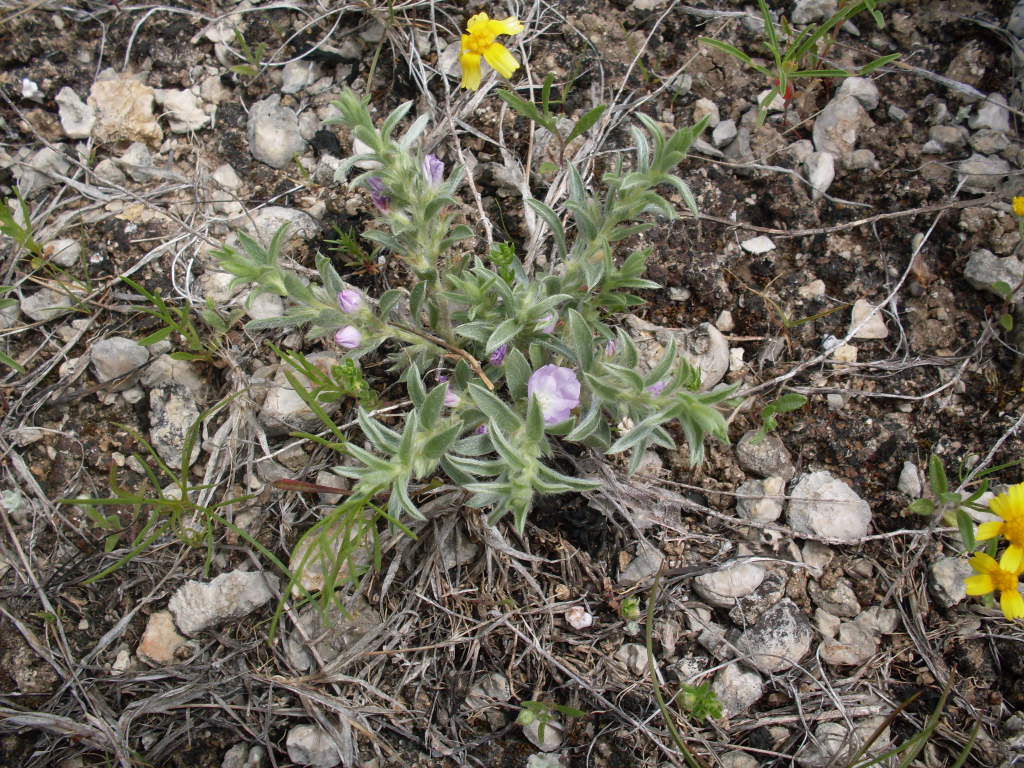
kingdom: Plantae
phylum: Tracheophyta
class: Magnoliopsida
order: Solanales
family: Convolvulaceae
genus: Evolvulus
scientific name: Evolvulus nuttallianus
